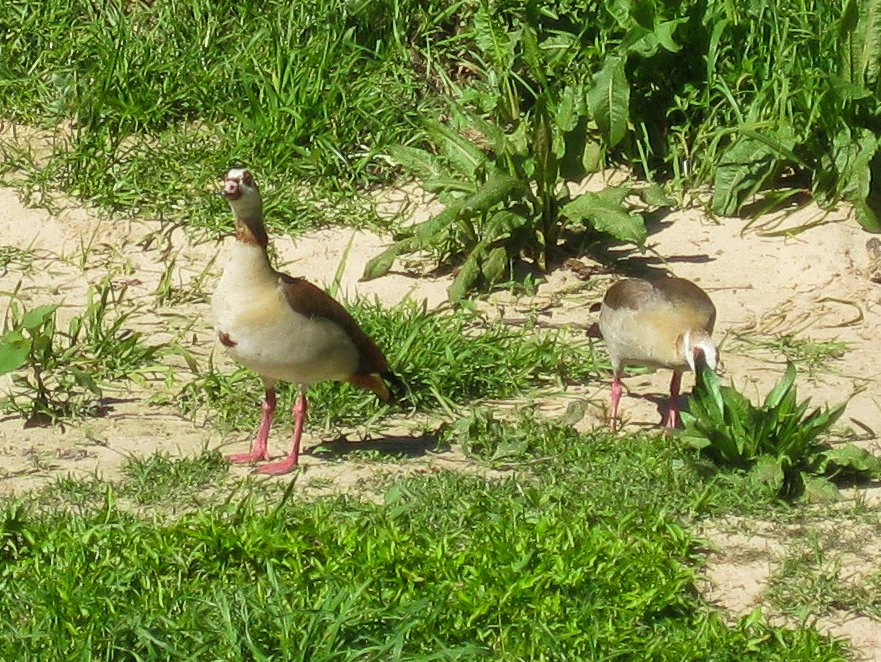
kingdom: Animalia
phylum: Chordata
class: Aves
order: Anseriformes
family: Anatidae
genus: Alopochen
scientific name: Alopochen aegyptiaca
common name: Egyptian goose
